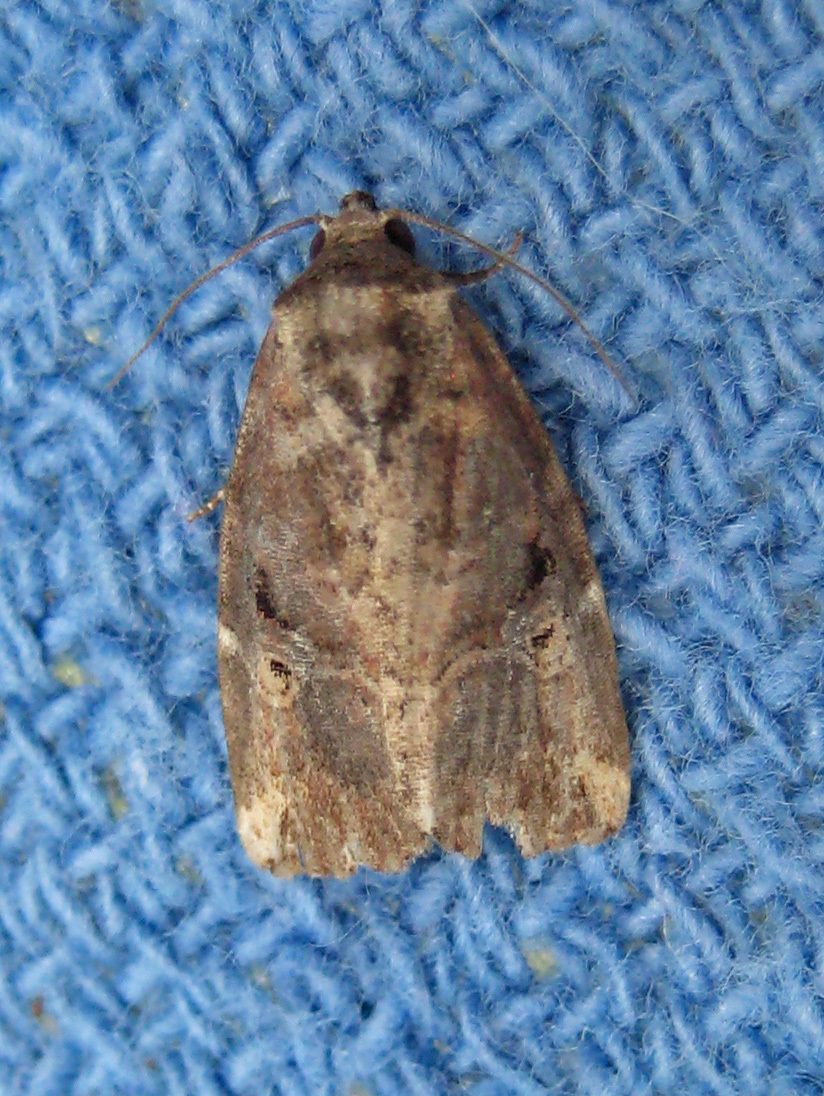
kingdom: Animalia
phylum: Arthropoda
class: Insecta
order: Lepidoptera
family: Noctuidae
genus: Elaphria
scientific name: Elaphria chalcedonia
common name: Chalcedony midget
